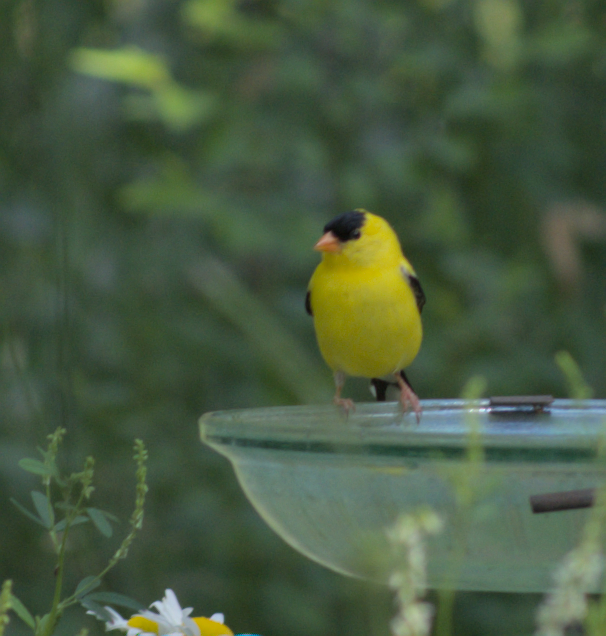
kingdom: Animalia
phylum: Chordata
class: Aves
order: Passeriformes
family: Fringillidae
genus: Spinus
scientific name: Spinus tristis
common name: American goldfinch
